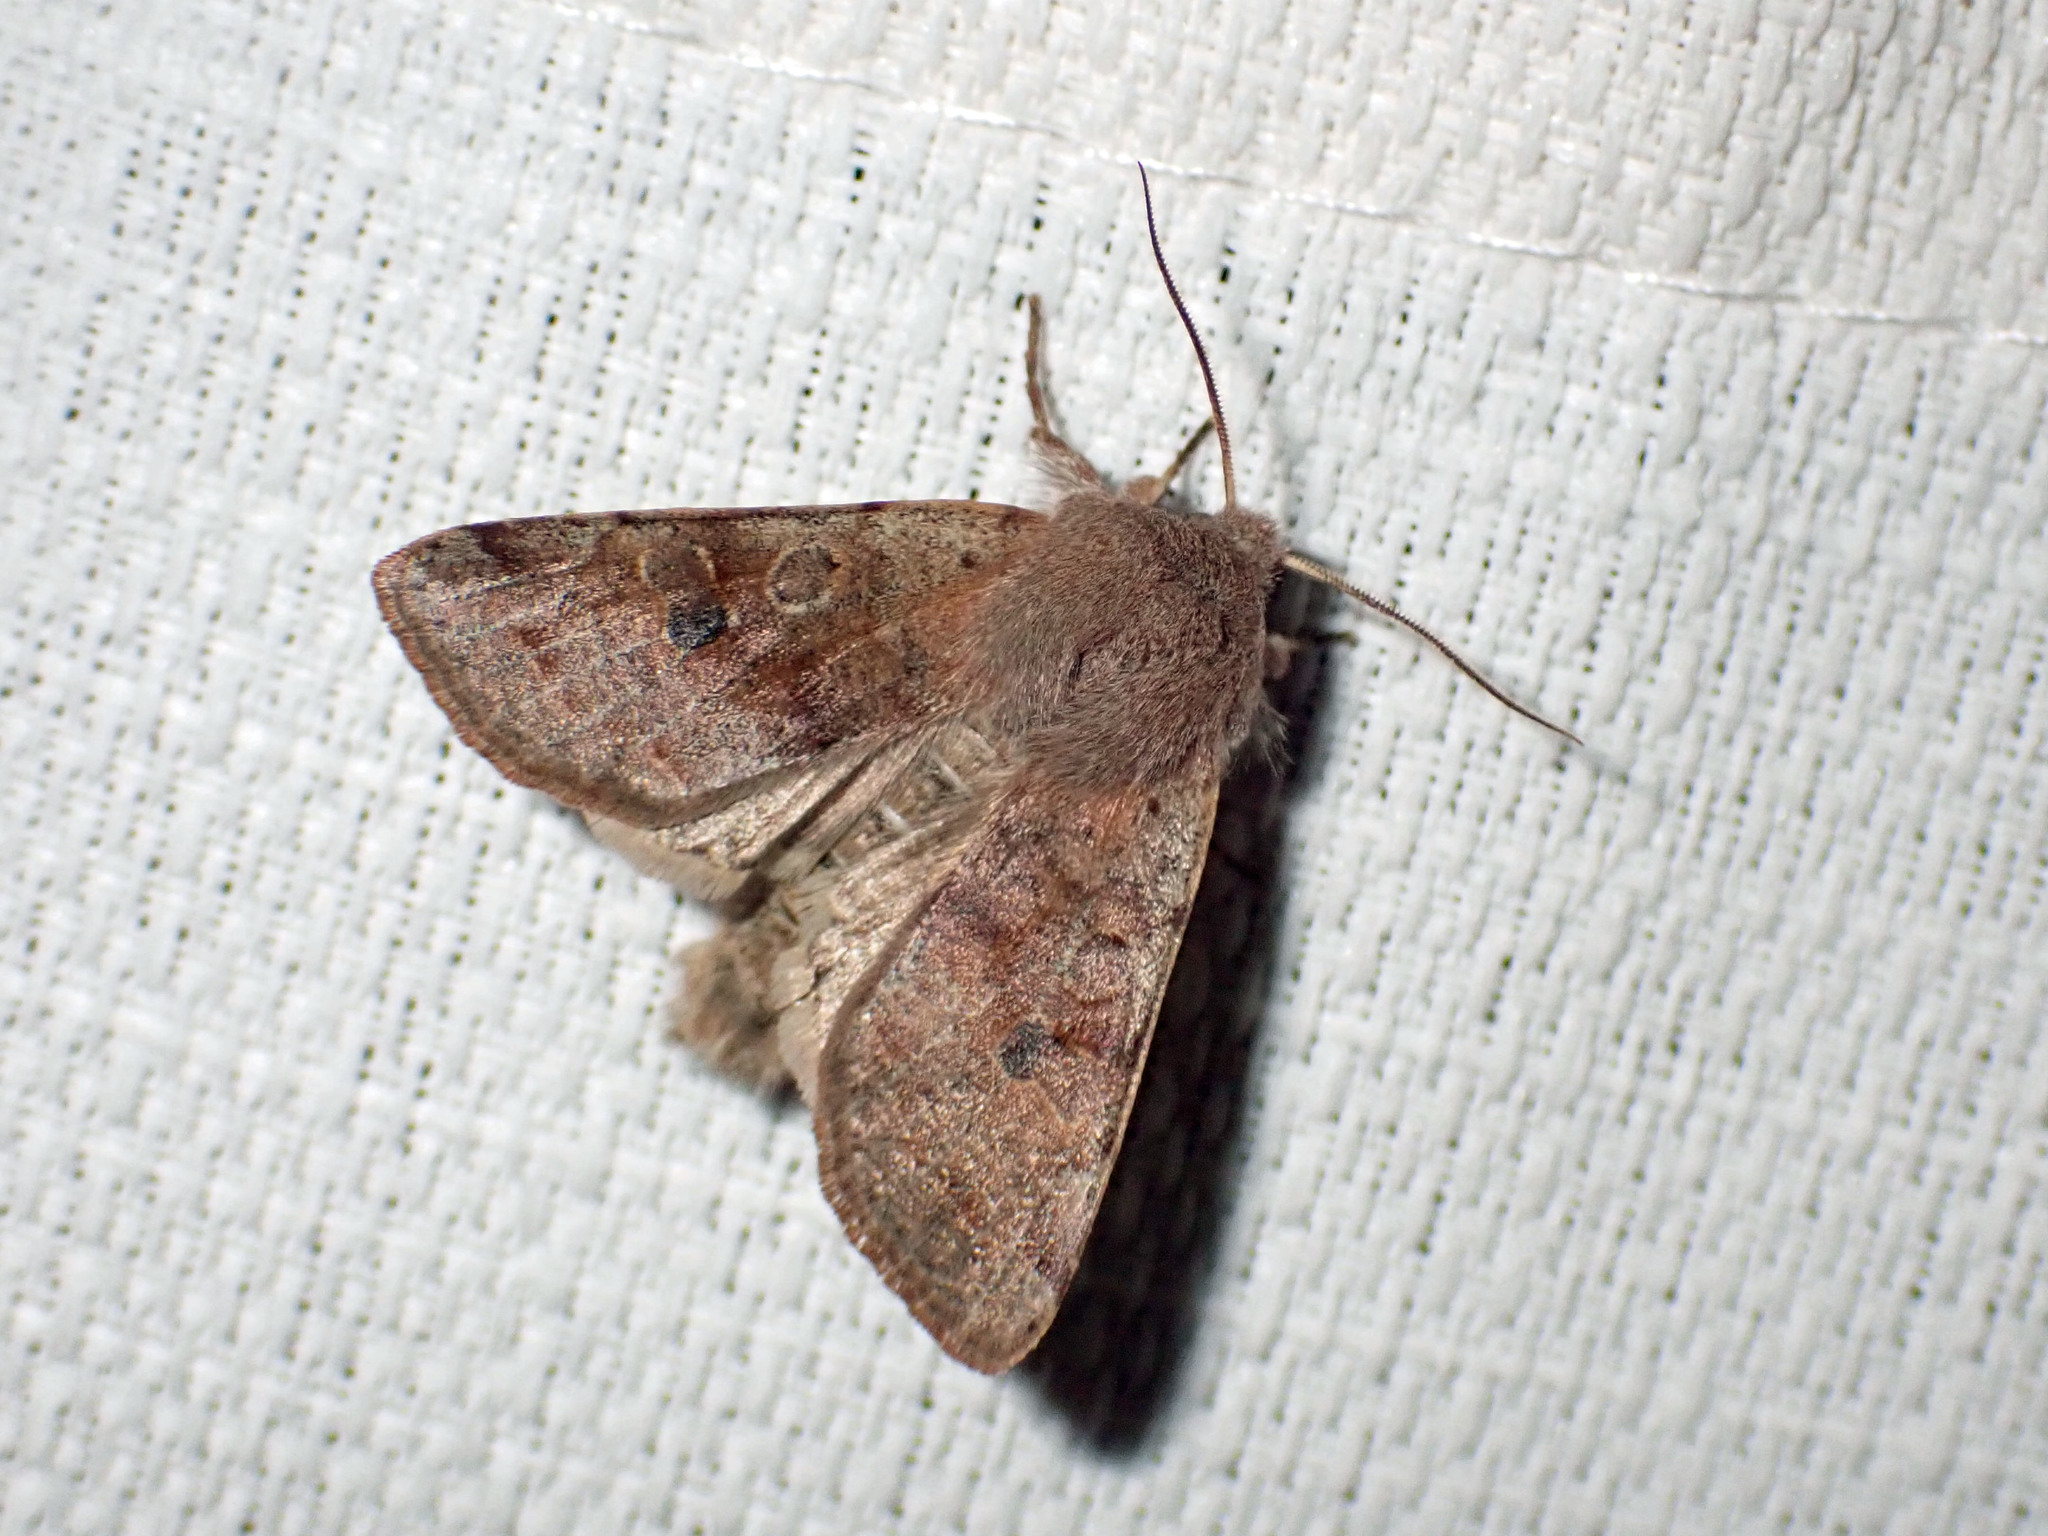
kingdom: Animalia
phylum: Arthropoda
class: Insecta
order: Lepidoptera
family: Noctuidae
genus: Orthosia
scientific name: Orthosia hibisci
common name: Green fruitworm
